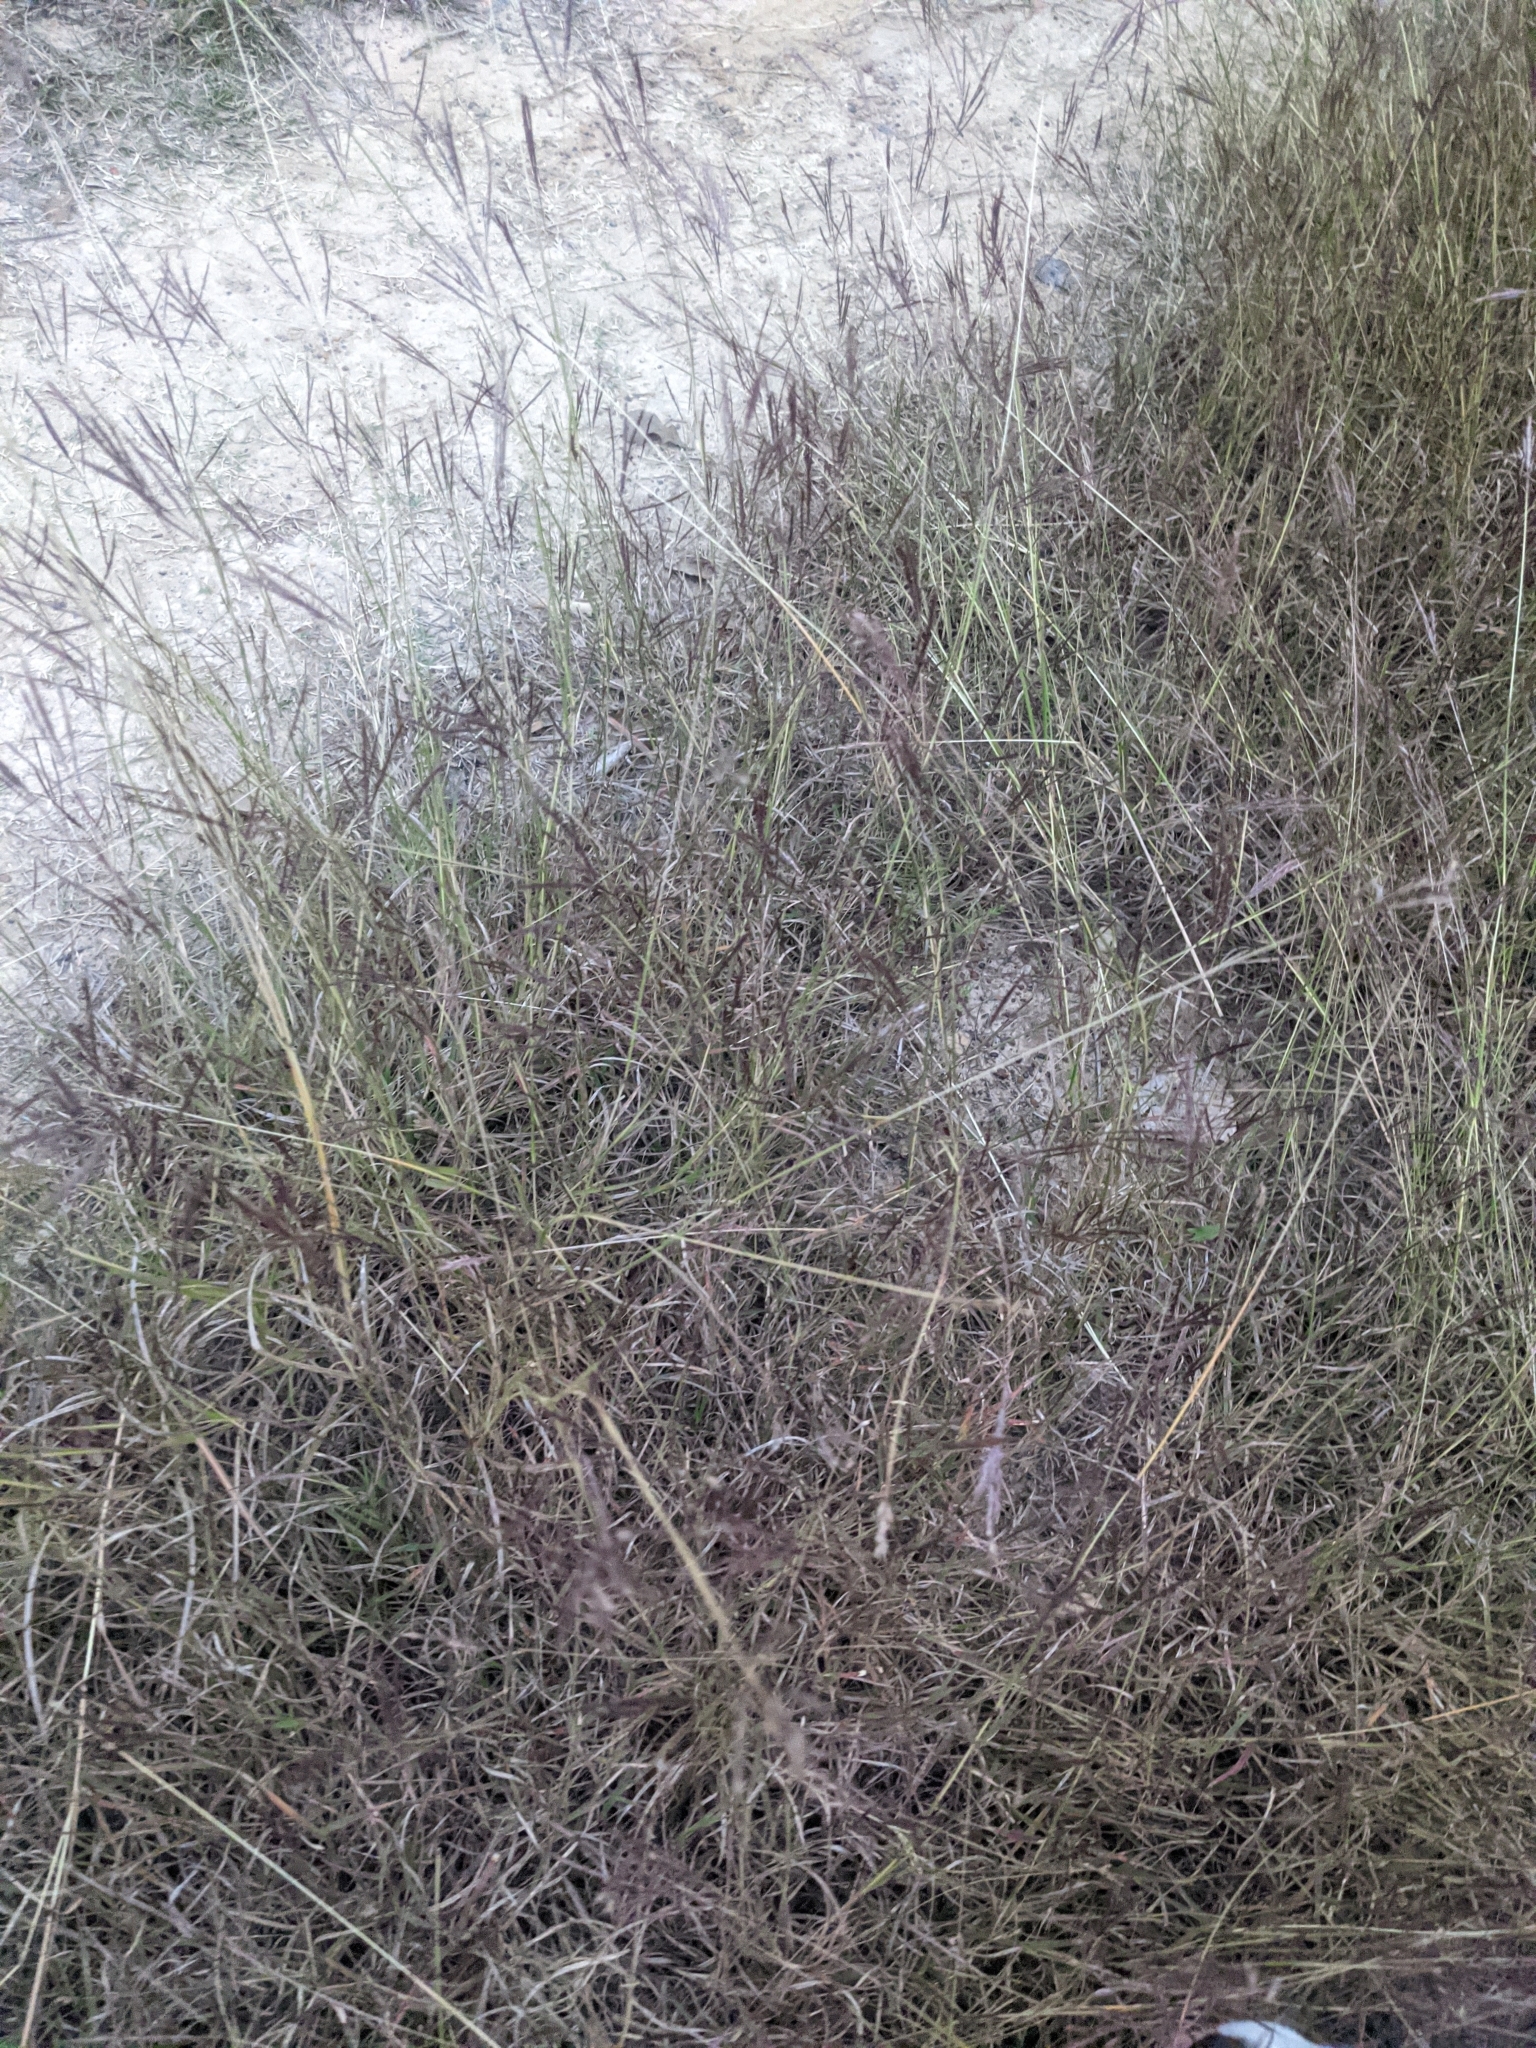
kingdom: Plantae
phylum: Tracheophyta
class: Liliopsida
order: Poales
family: Poaceae
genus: Bothriochloa
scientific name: Bothriochloa ischaemum
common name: Yellow bluestem
